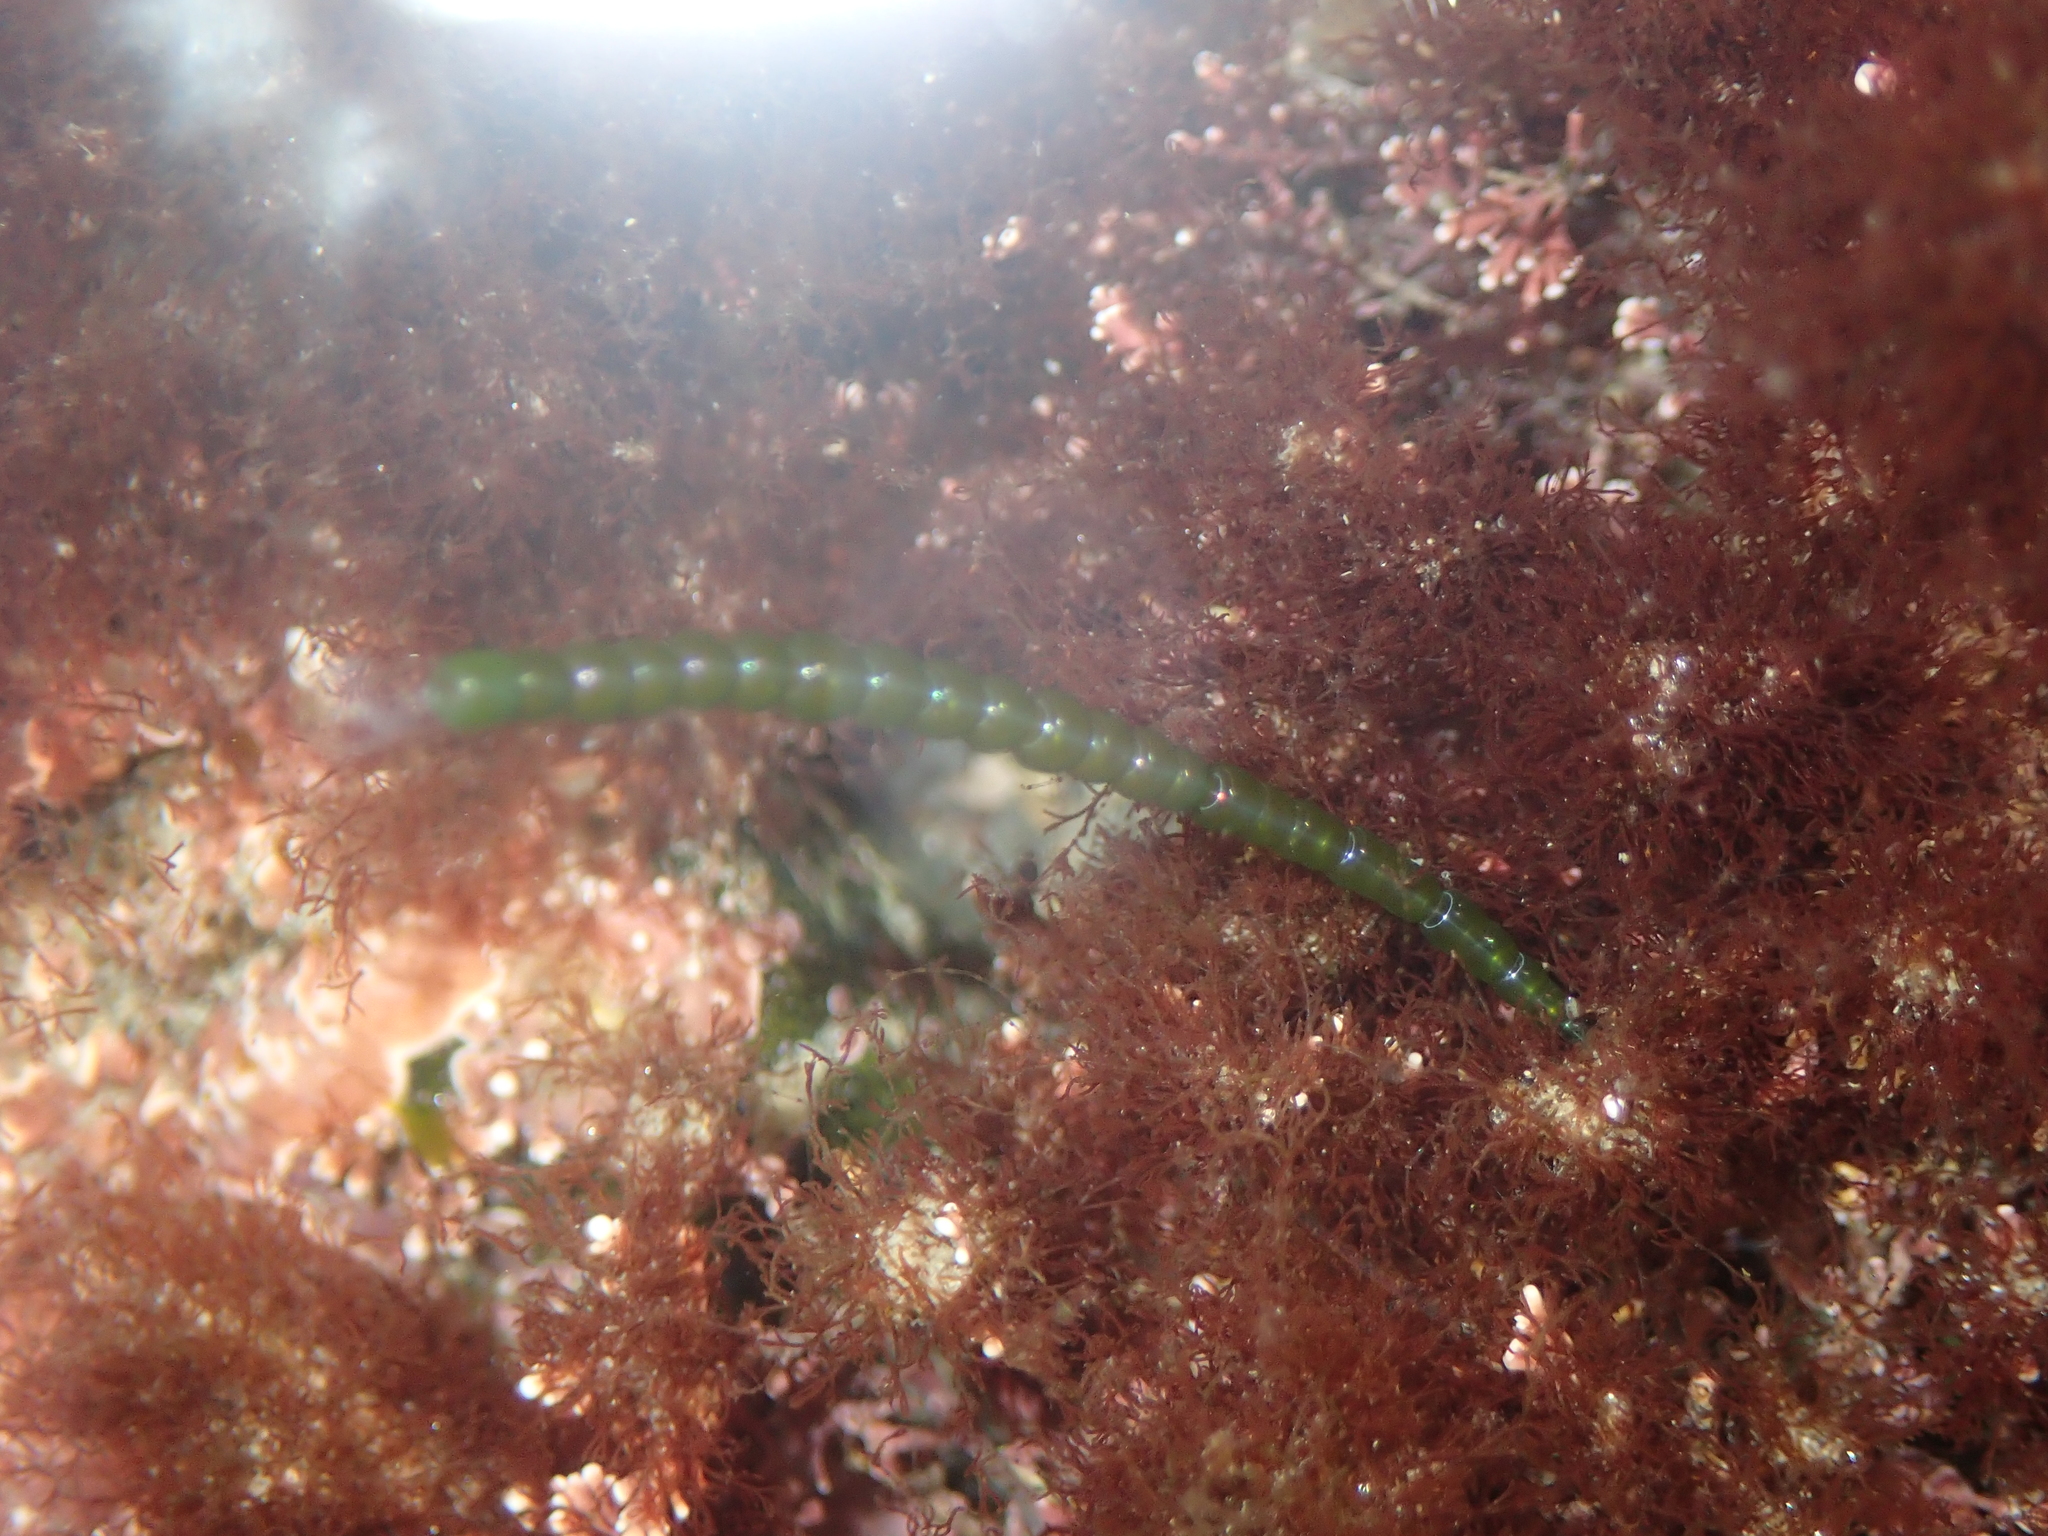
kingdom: Plantae
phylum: Chlorophyta
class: Ulvophyceae
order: Cladophorales
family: Cladophoraceae
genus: Chaetomorpha
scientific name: Chaetomorpha coliformis
